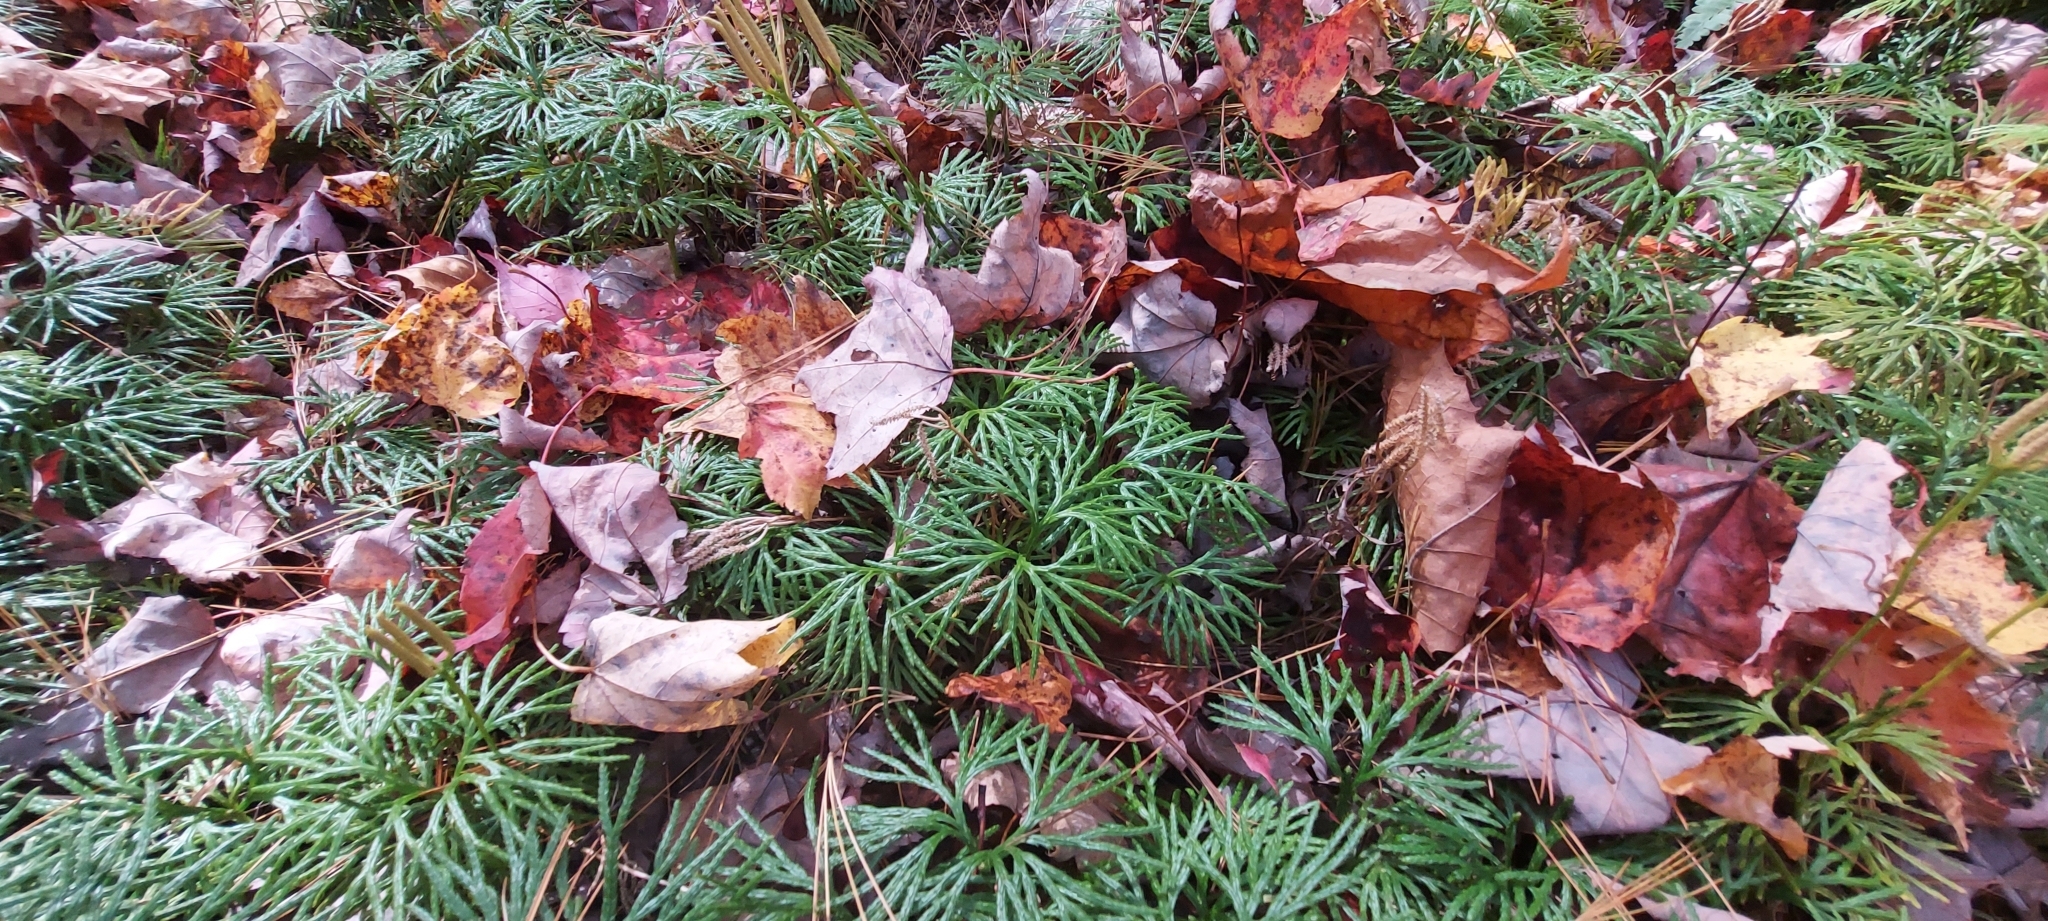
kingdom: Plantae
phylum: Tracheophyta
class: Lycopodiopsida
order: Lycopodiales
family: Lycopodiaceae
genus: Diphasiastrum
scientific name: Diphasiastrum digitatum
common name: Southern running-pine
